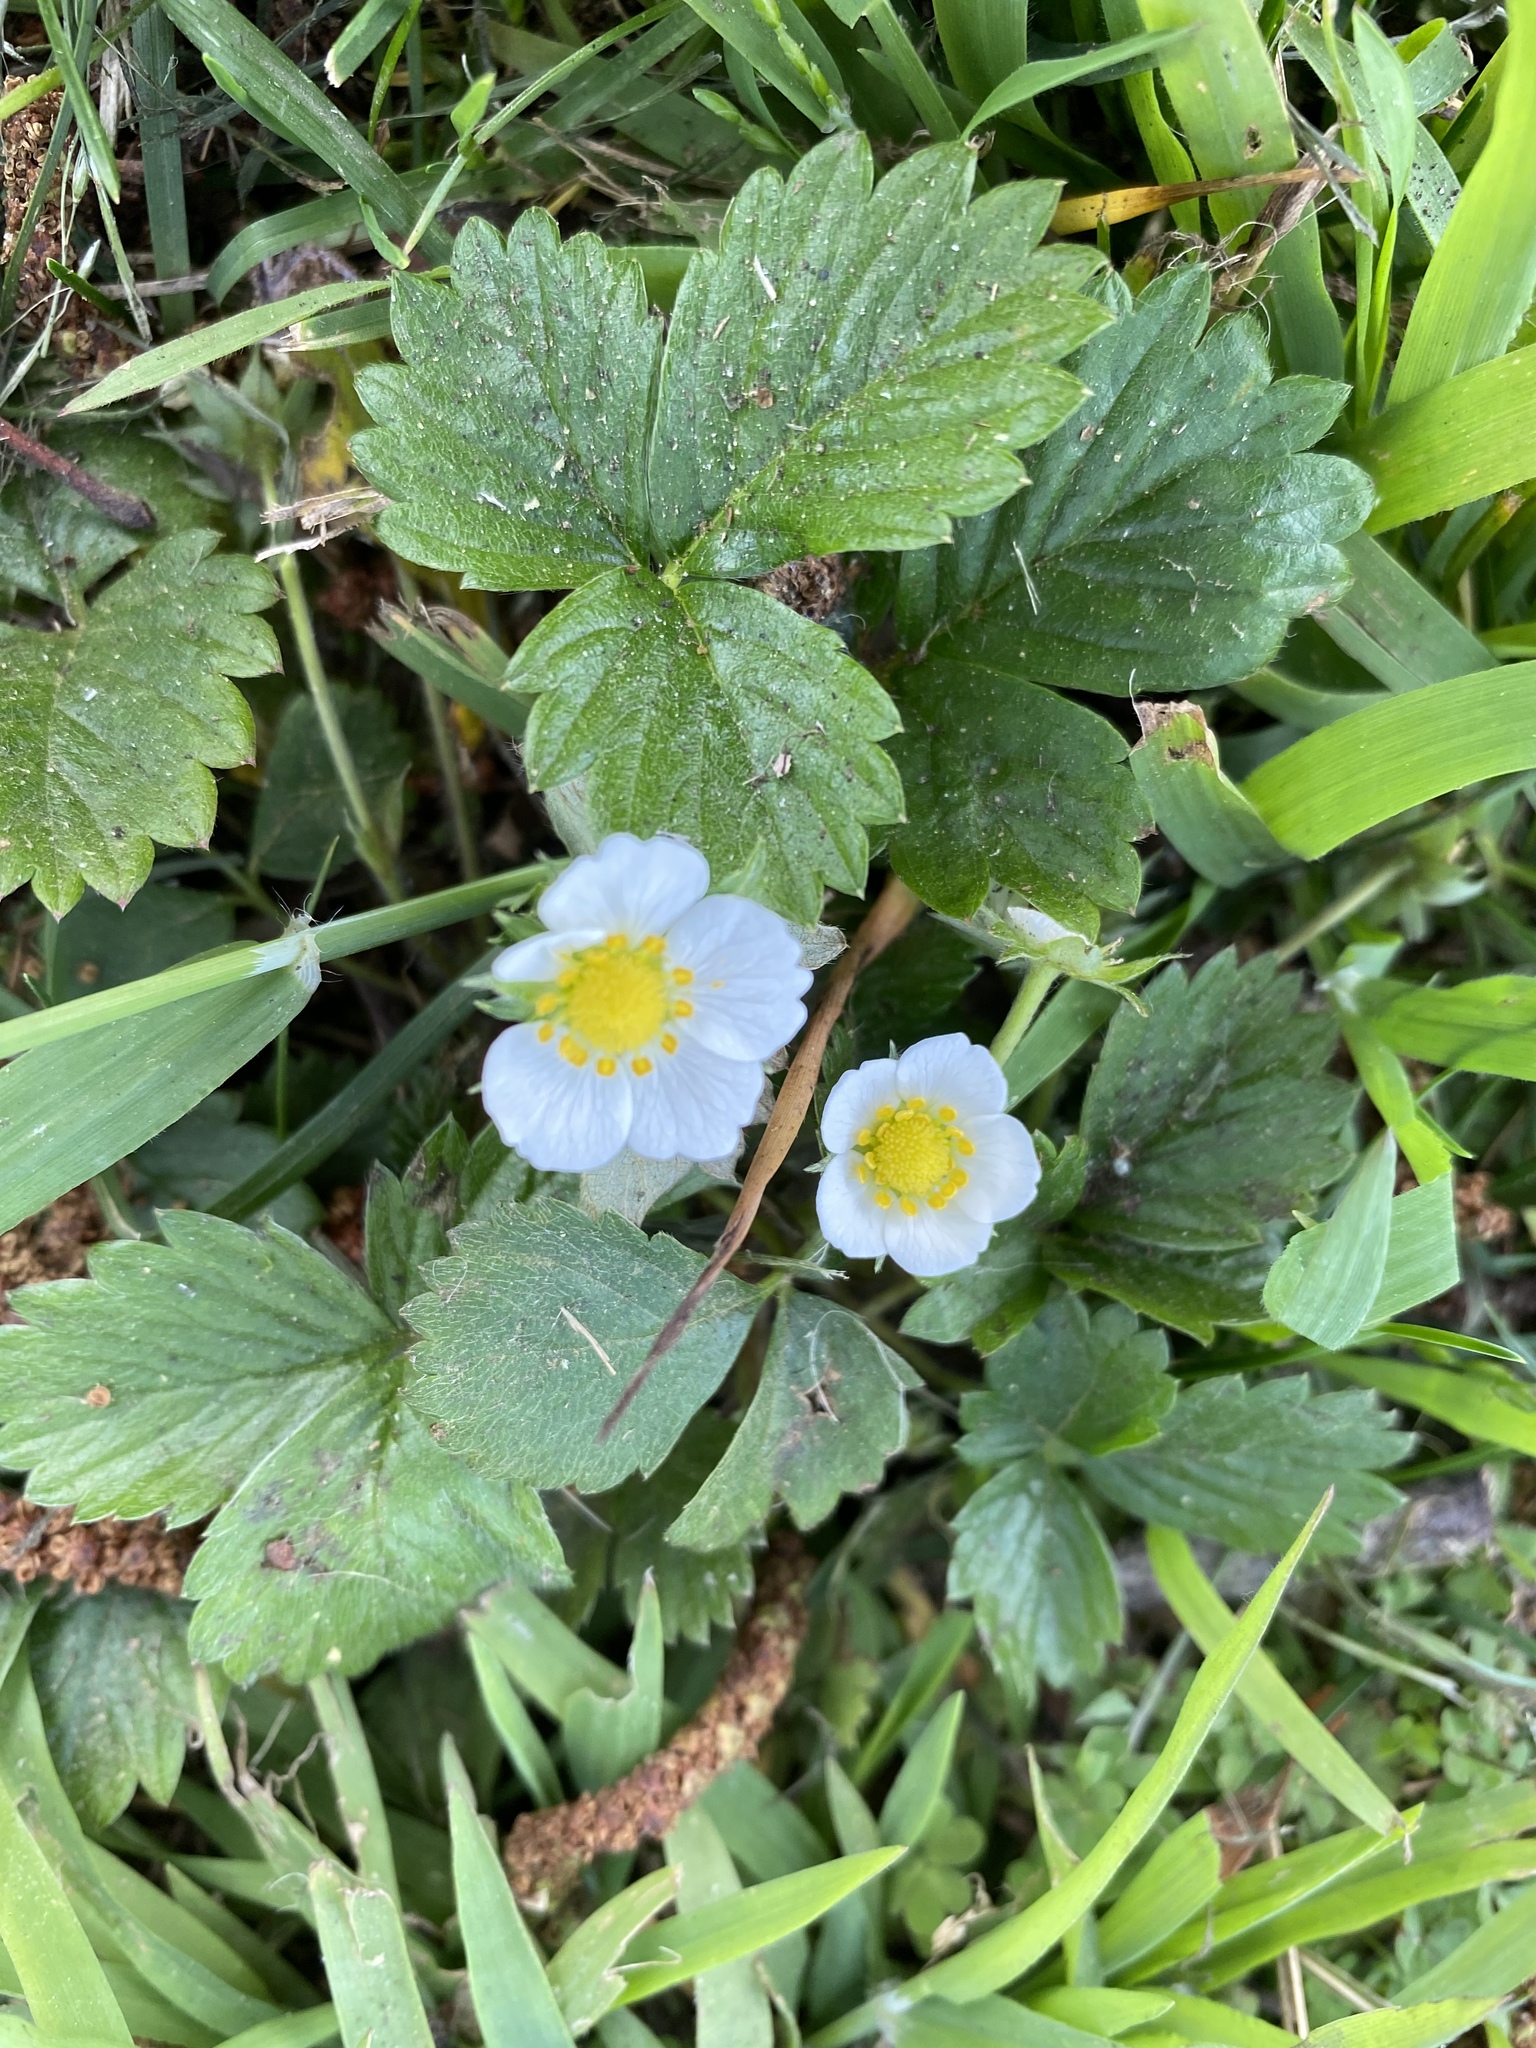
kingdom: Plantae
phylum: Tracheophyta
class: Magnoliopsida
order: Rosales
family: Rosaceae
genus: Fragaria
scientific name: Fragaria vesca
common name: Wild strawberry
